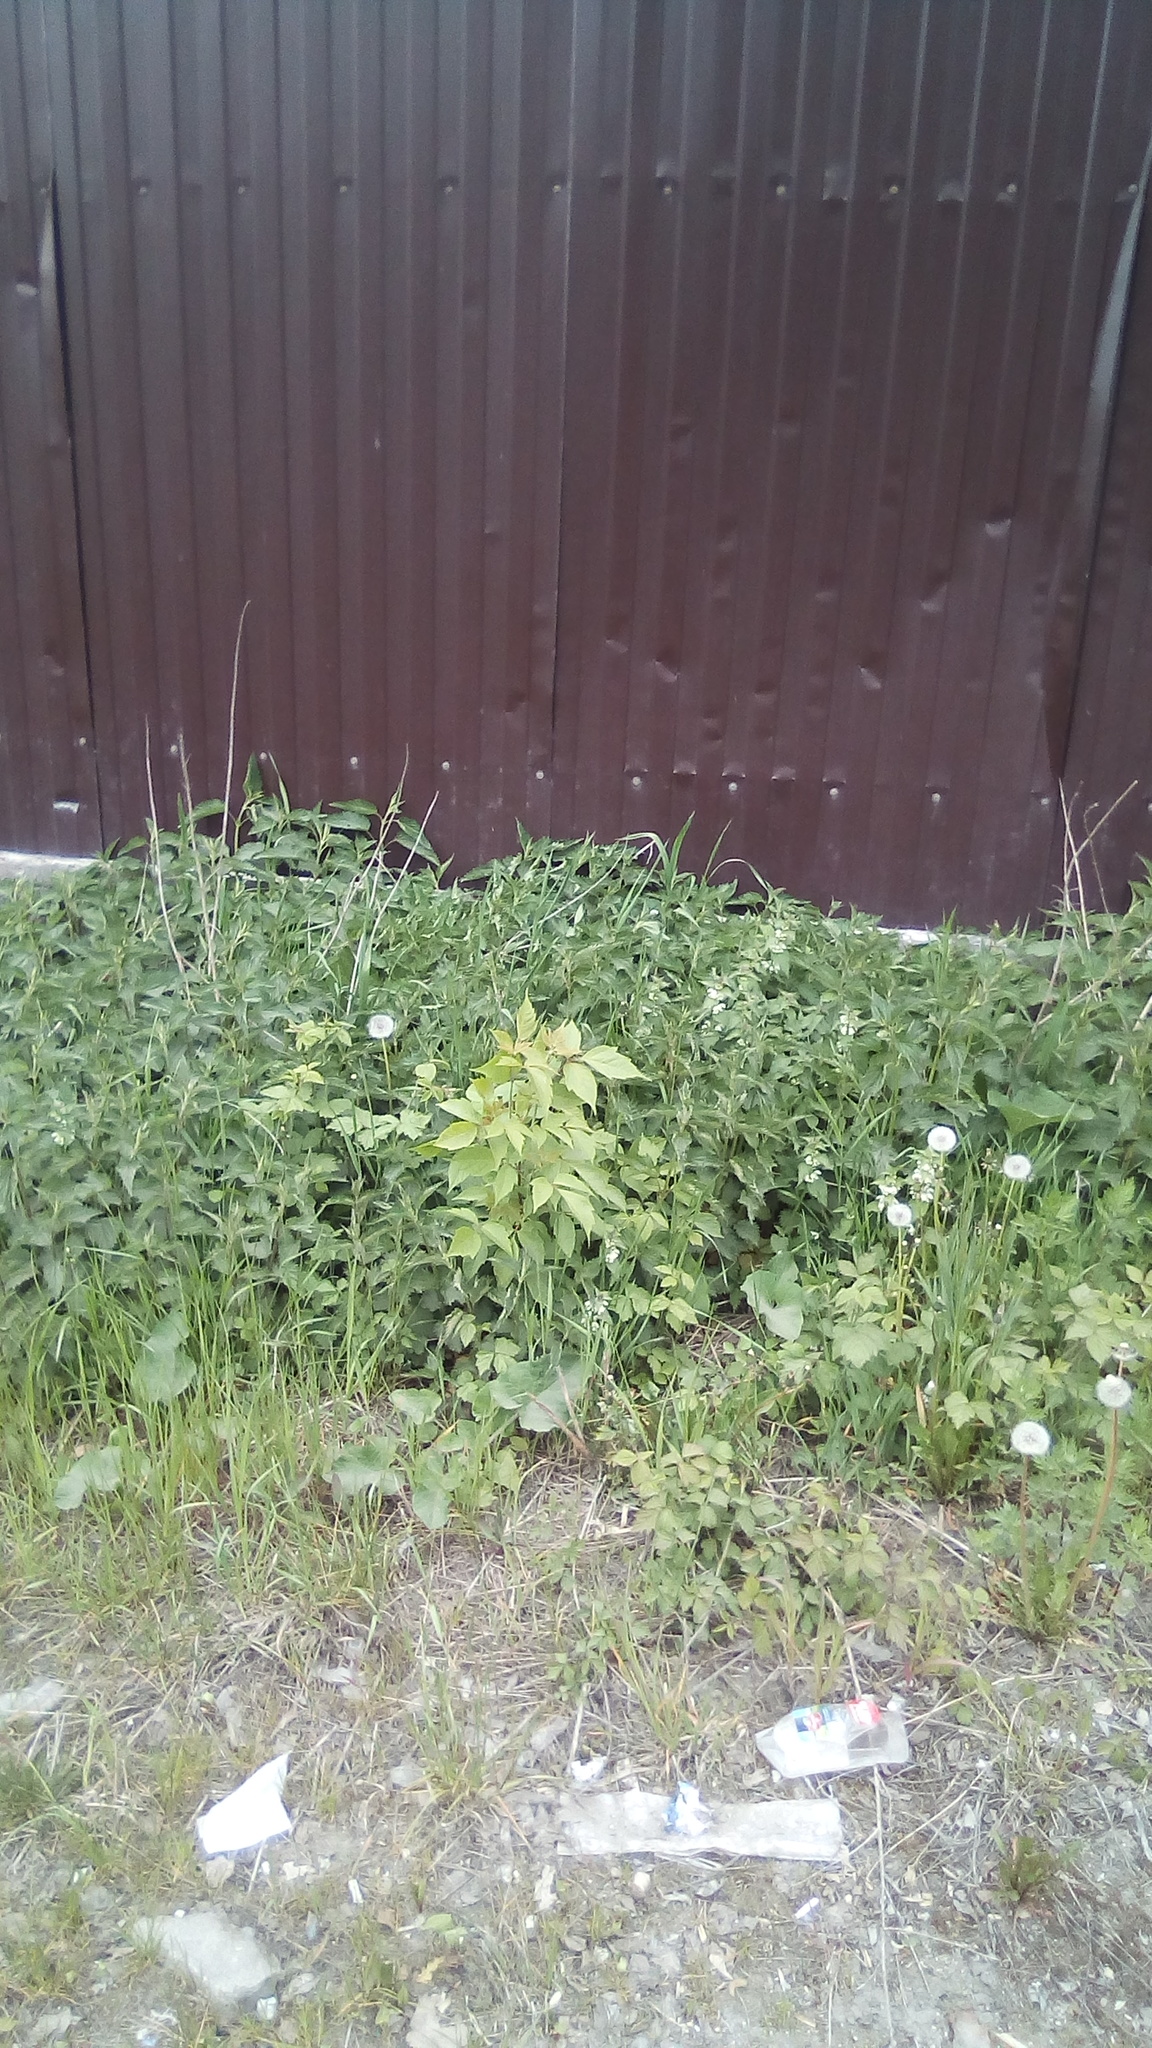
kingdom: Plantae
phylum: Tracheophyta
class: Magnoliopsida
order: Sapindales
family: Sapindaceae
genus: Acer
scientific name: Acer negundo
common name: Ashleaf maple
